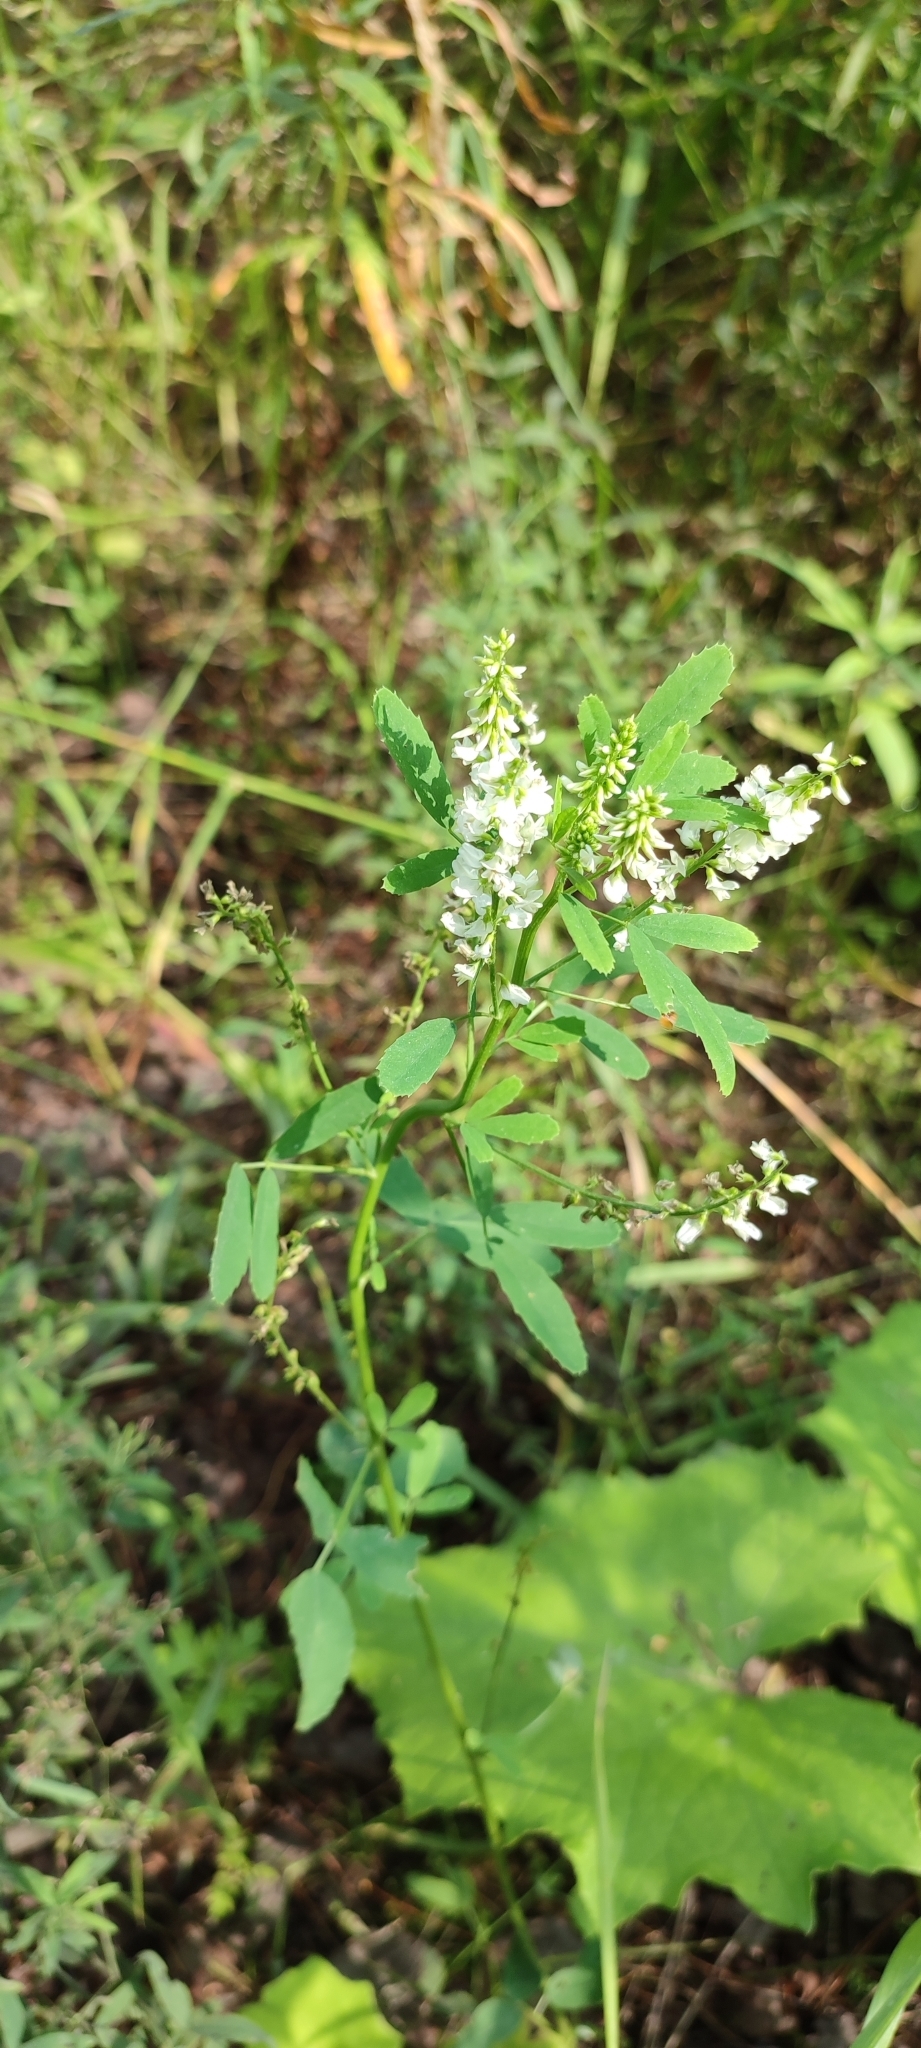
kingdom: Plantae
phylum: Tracheophyta
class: Magnoliopsida
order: Fabales
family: Fabaceae
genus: Melilotus
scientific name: Melilotus albus
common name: White melilot
